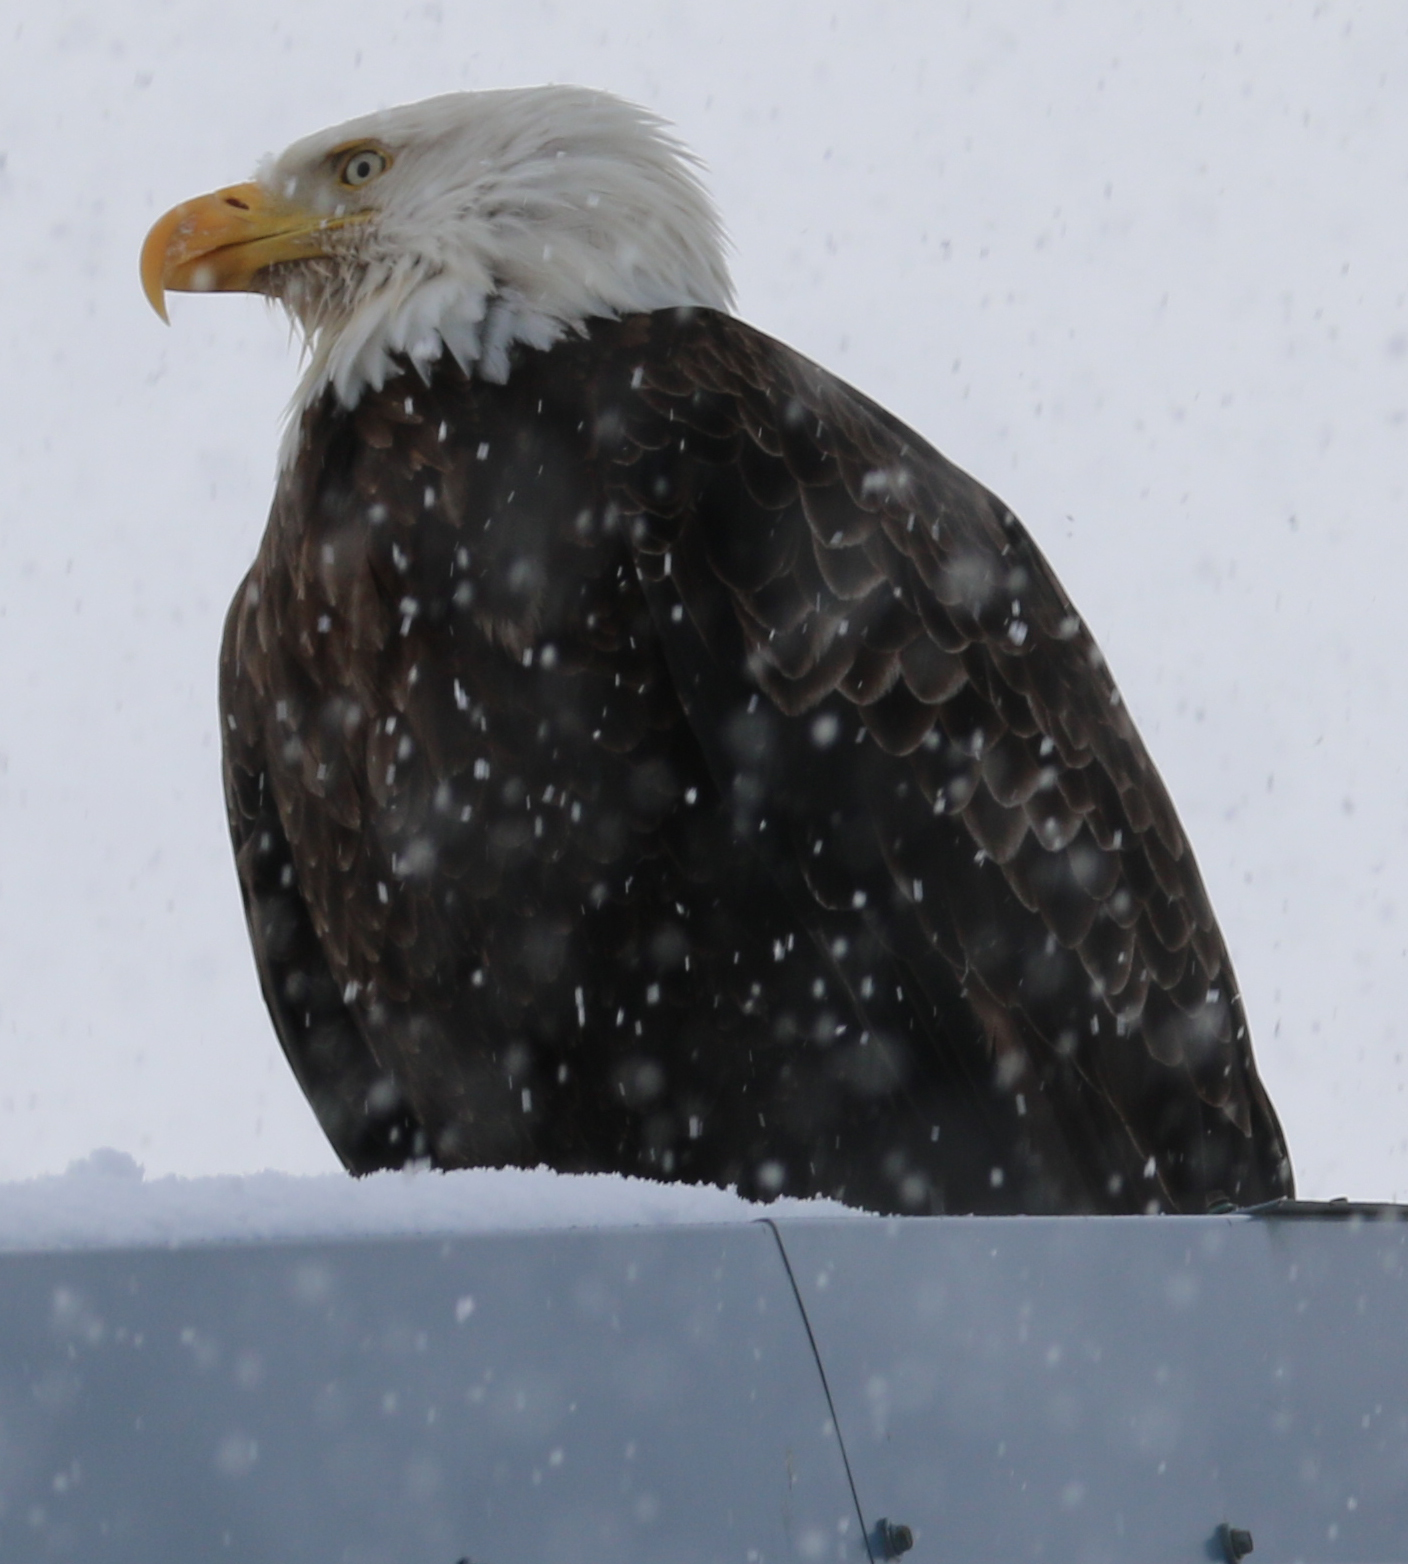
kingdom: Animalia
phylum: Chordata
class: Aves
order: Accipitriformes
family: Accipitridae
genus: Haliaeetus
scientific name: Haliaeetus leucocephalus
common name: Bald eagle
